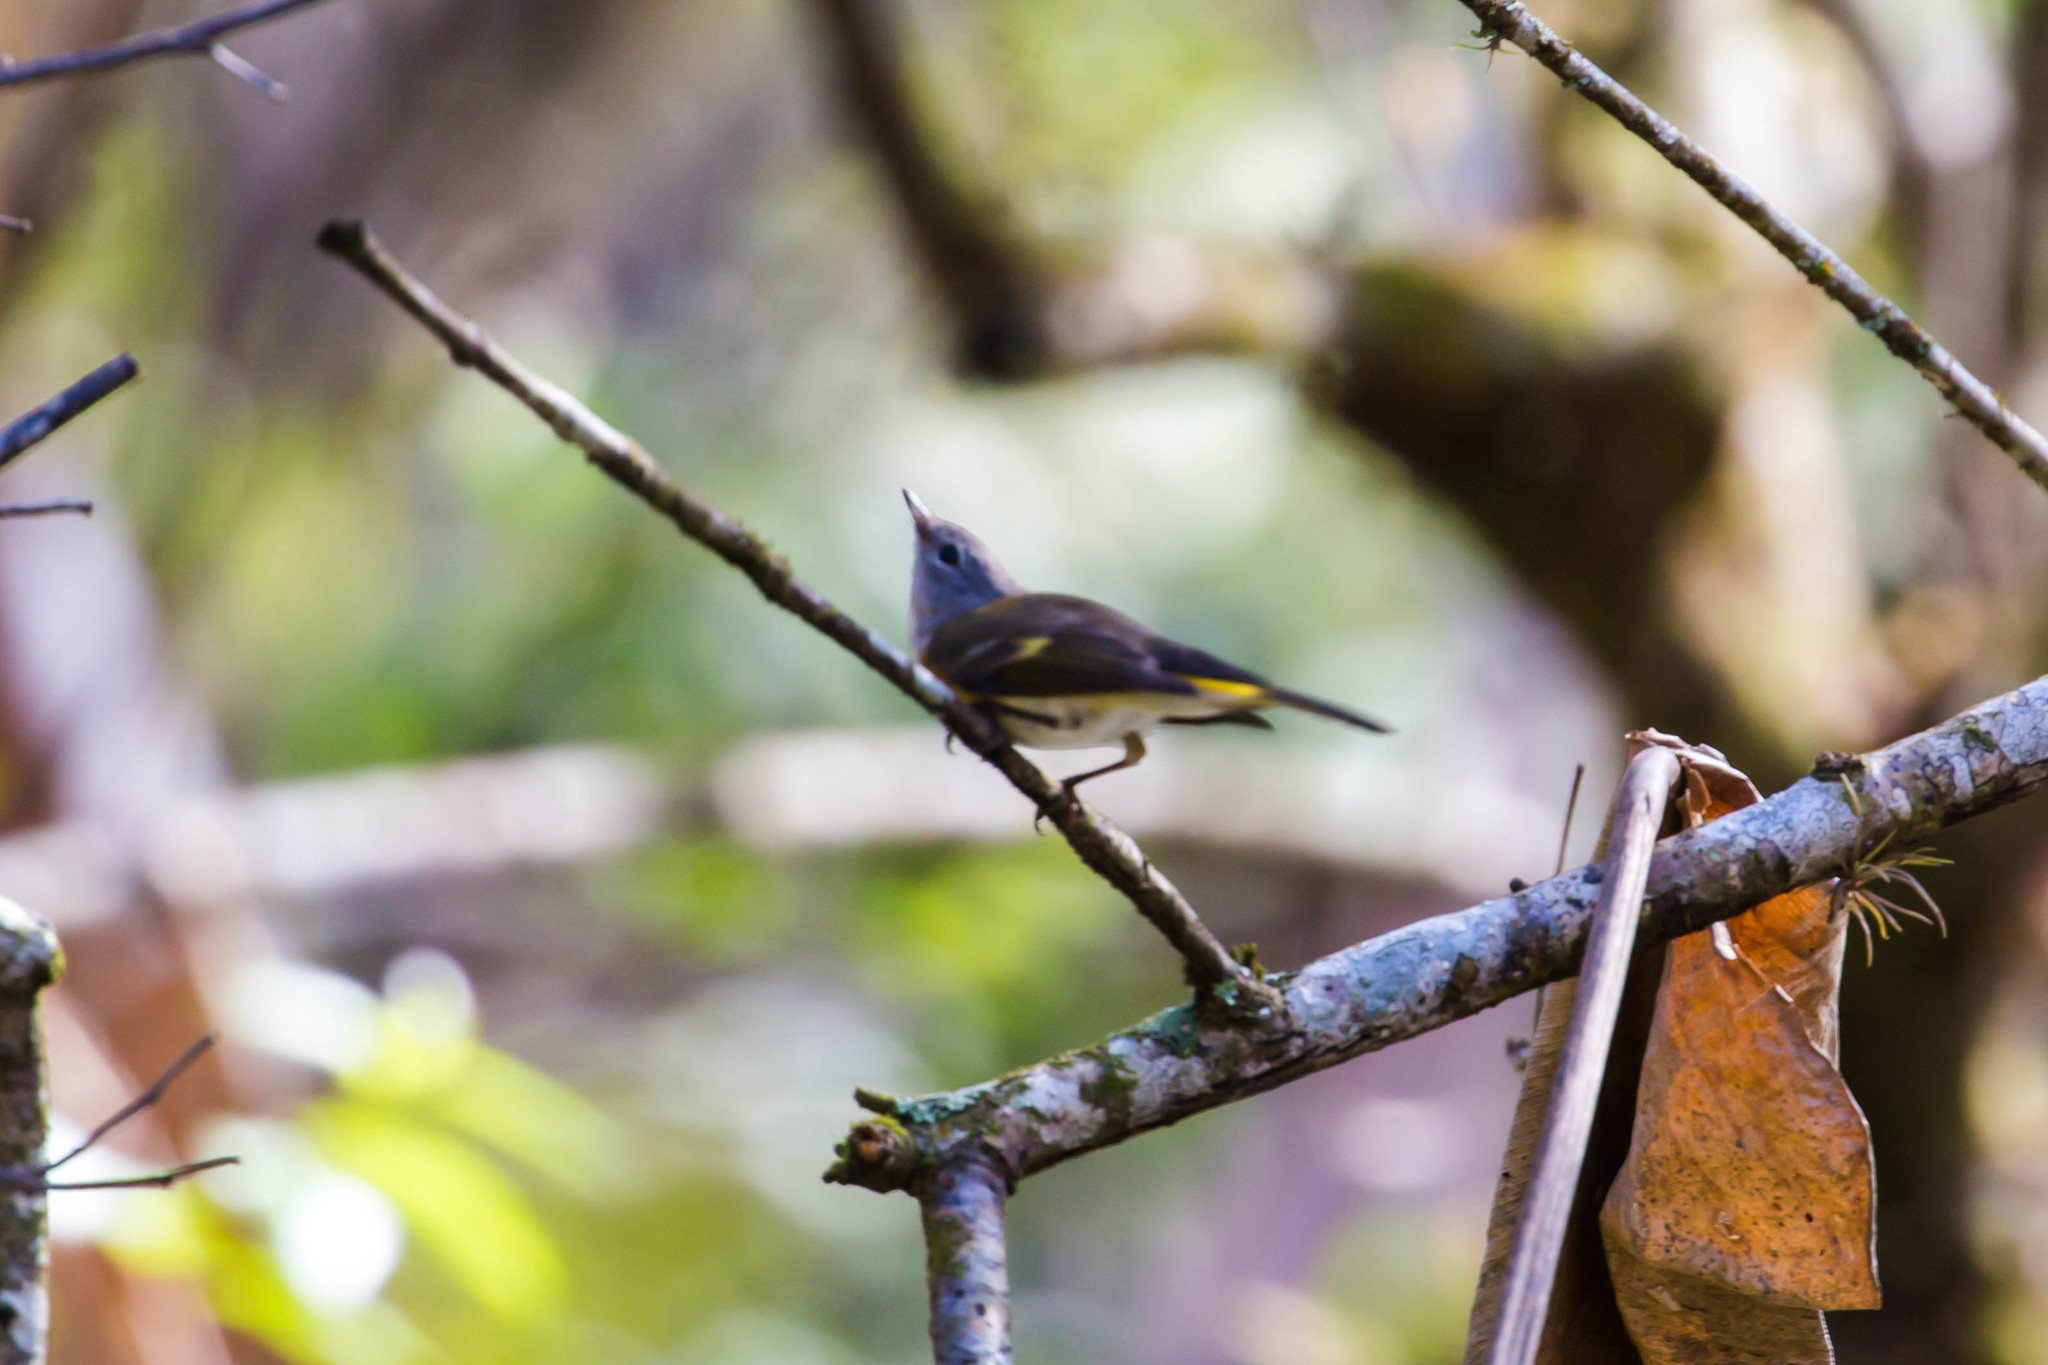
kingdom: Animalia
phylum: Chordata
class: Aves
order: Passeriformes
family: Parulidae
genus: Setophaga
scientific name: Setophaga ruticilla
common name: American redstart
